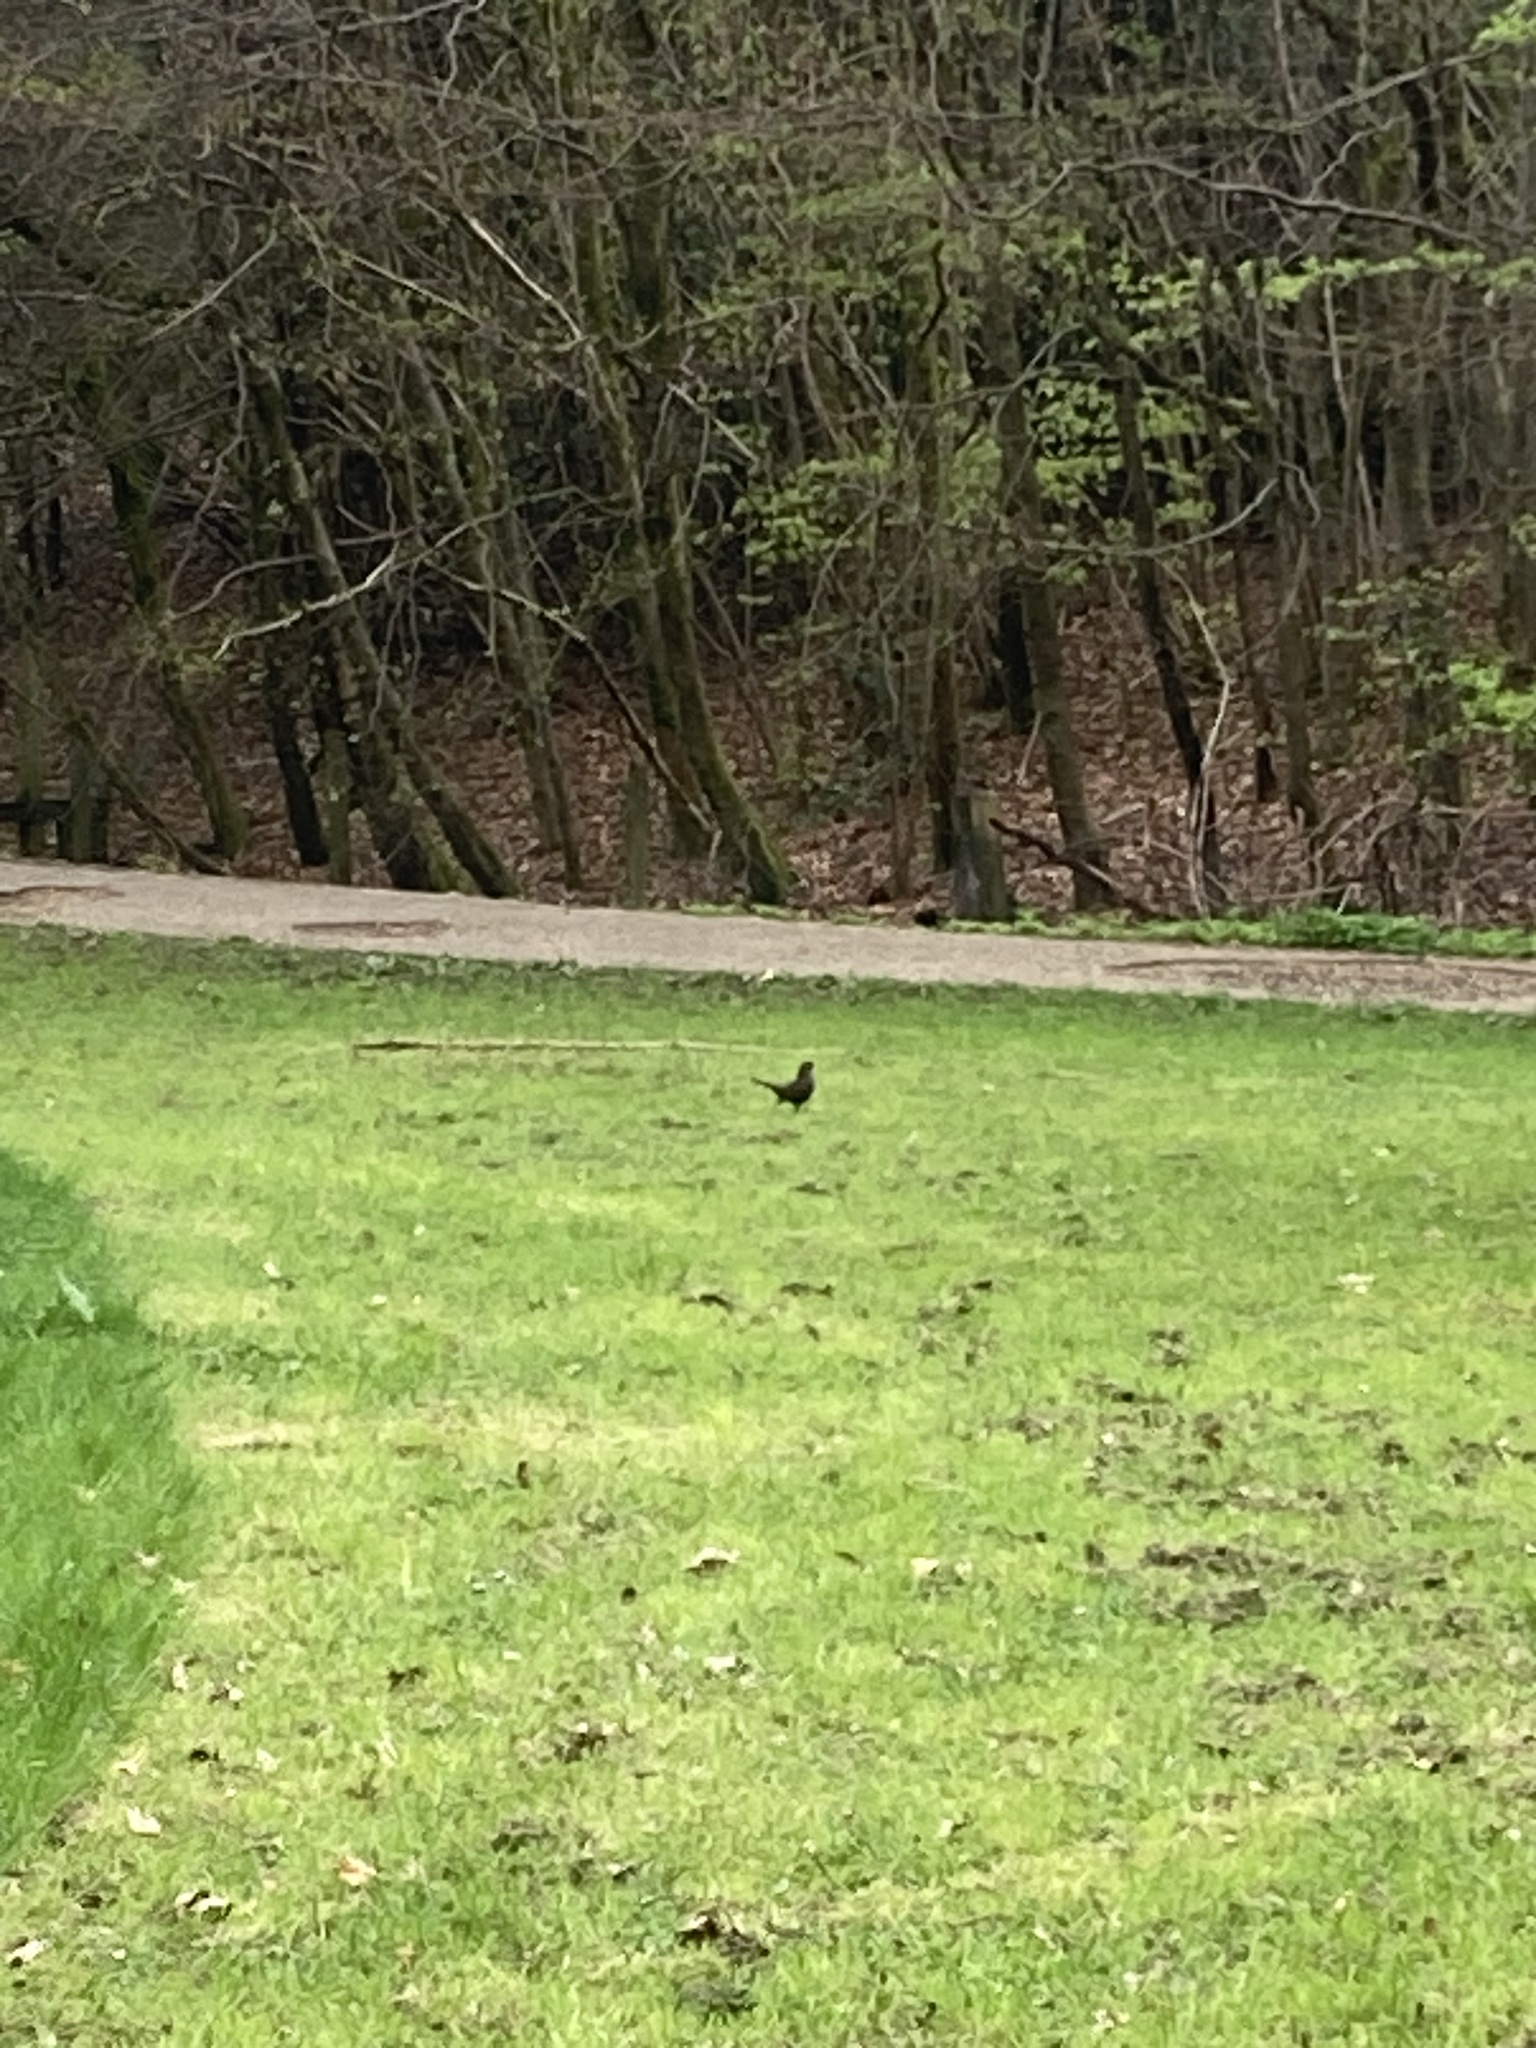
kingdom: Animalia
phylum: Chordata
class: Aves
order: Passeriformes
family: Turdidae
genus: Turdus
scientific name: Turdus merula
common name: Common blackbird
